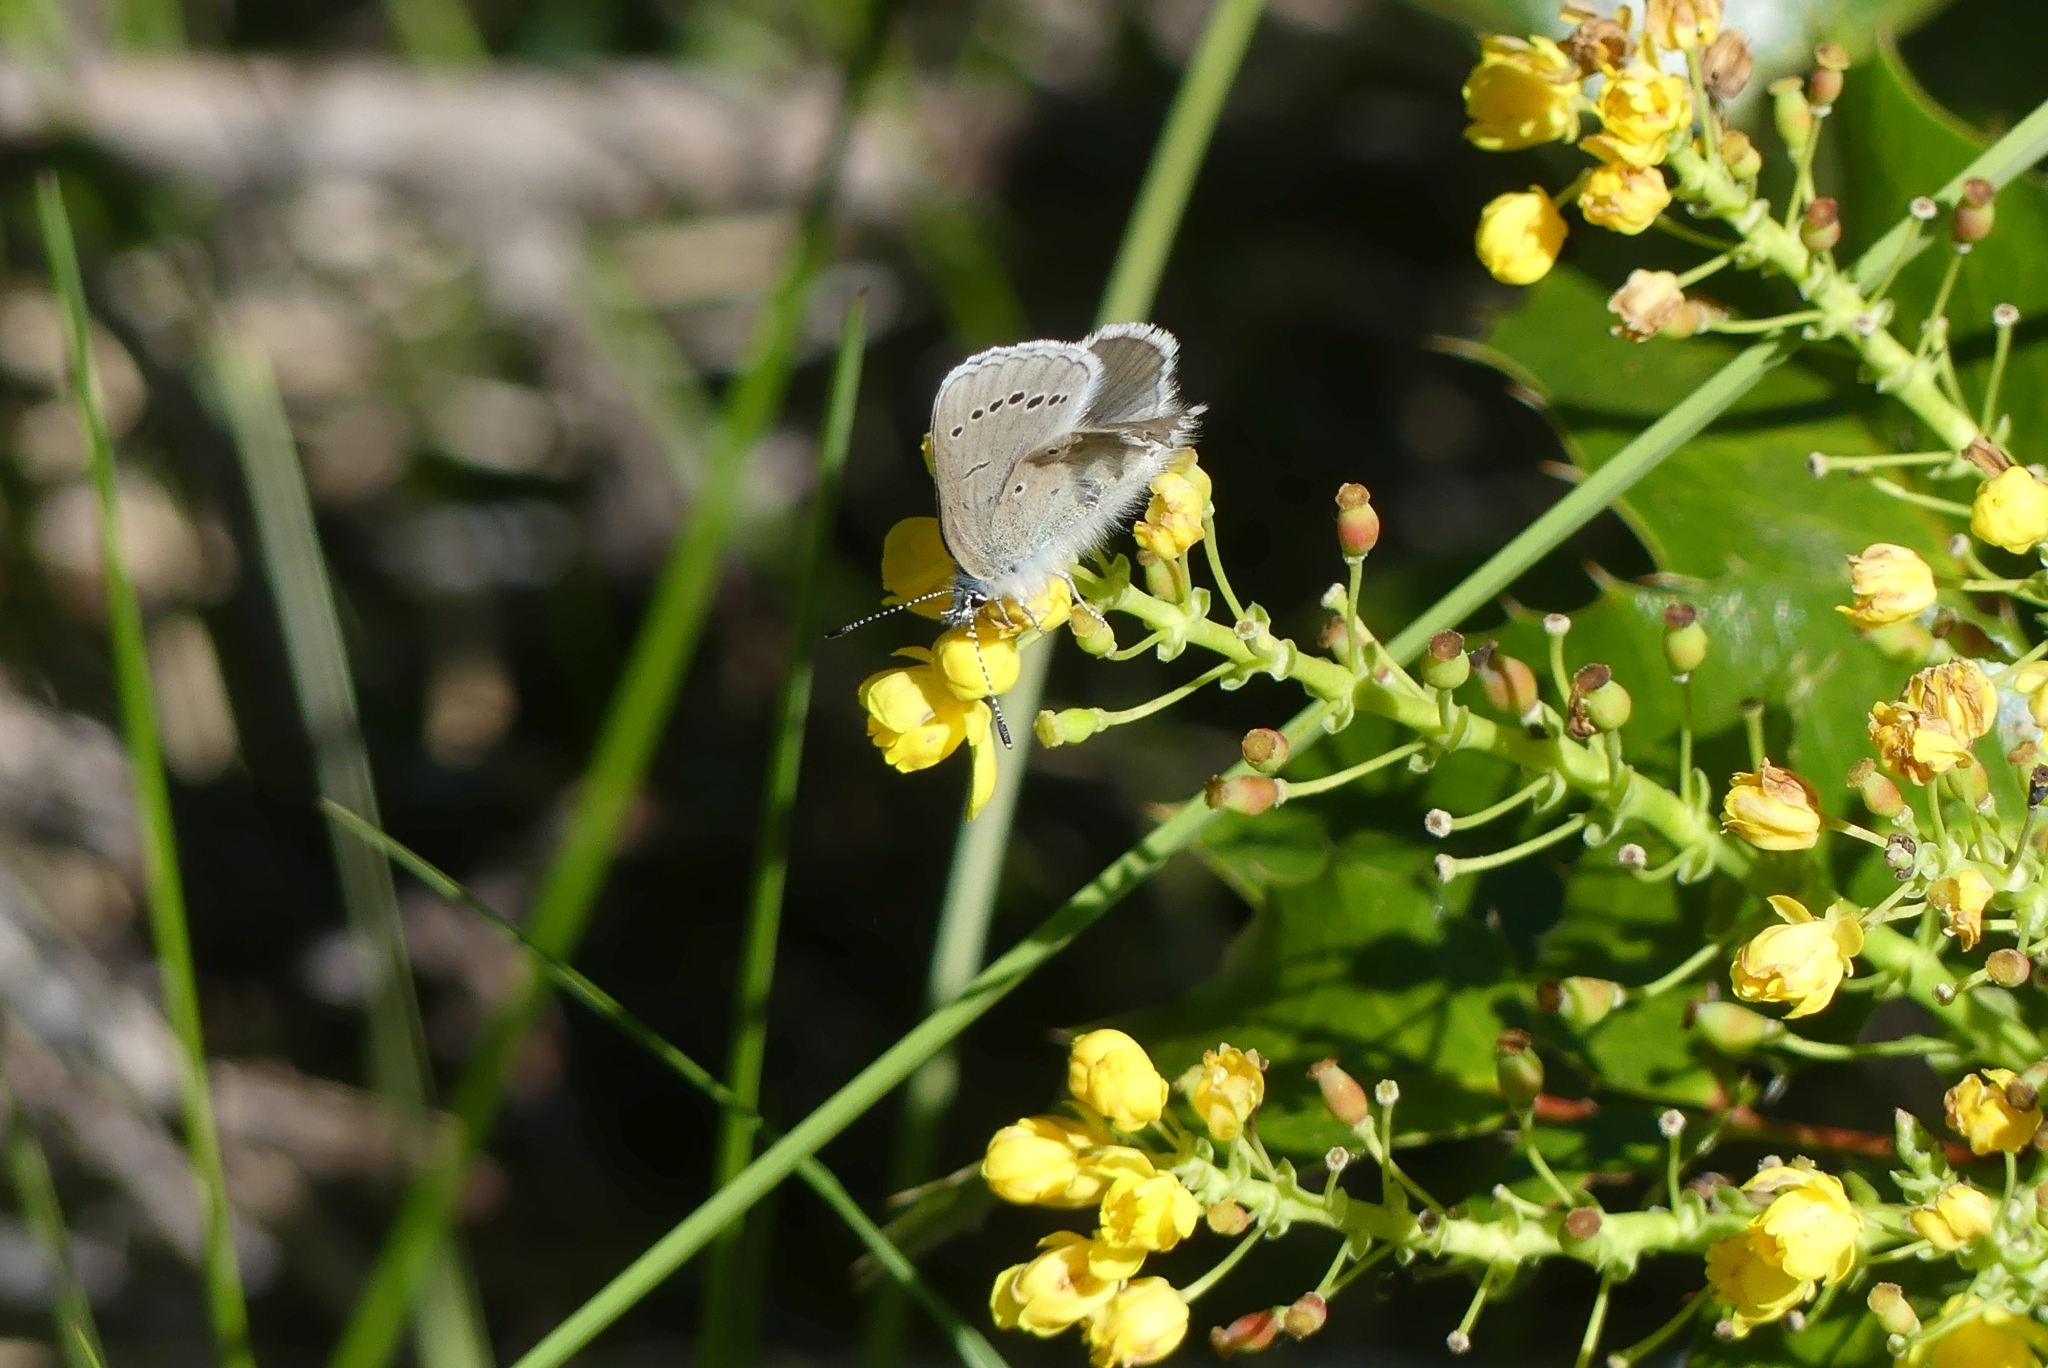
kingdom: Animalia
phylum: Arthropoda
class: Insecta
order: Lepidoptera
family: Lycaenidae
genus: Glaucopsyche
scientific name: Glaucopsyche lygdamus
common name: Silvery blue
